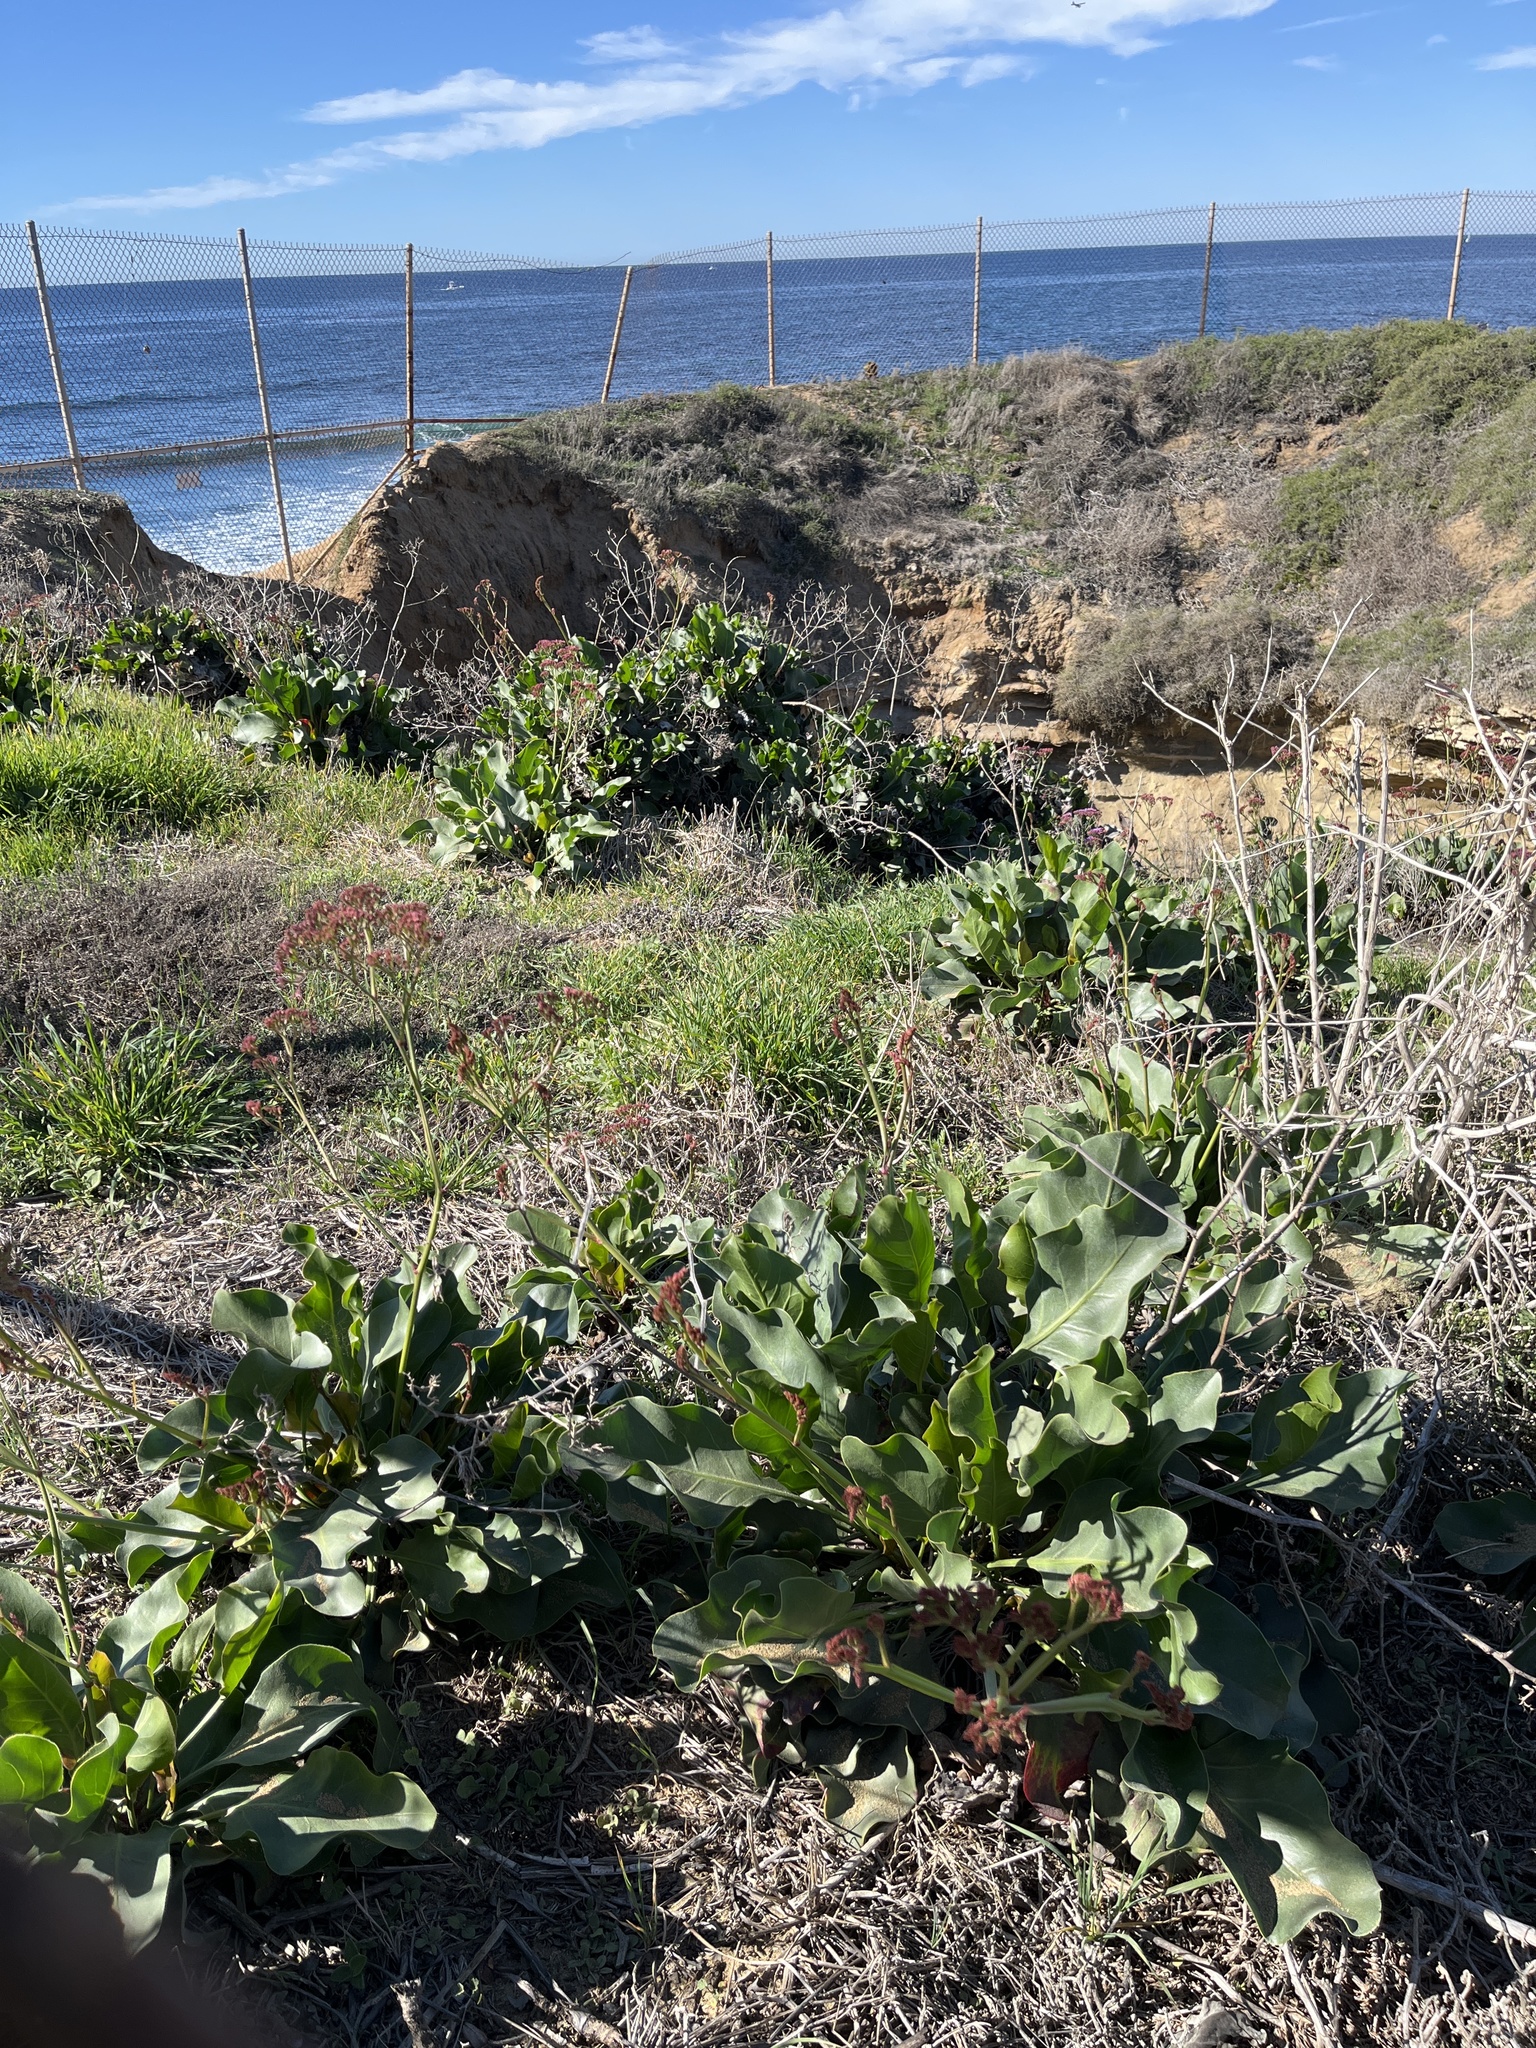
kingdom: Plantae
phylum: Tracheophyta
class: Magnoliopsida
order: Caryophyllales
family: Plumbaginaceae
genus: Limonium
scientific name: Limonium perezii
